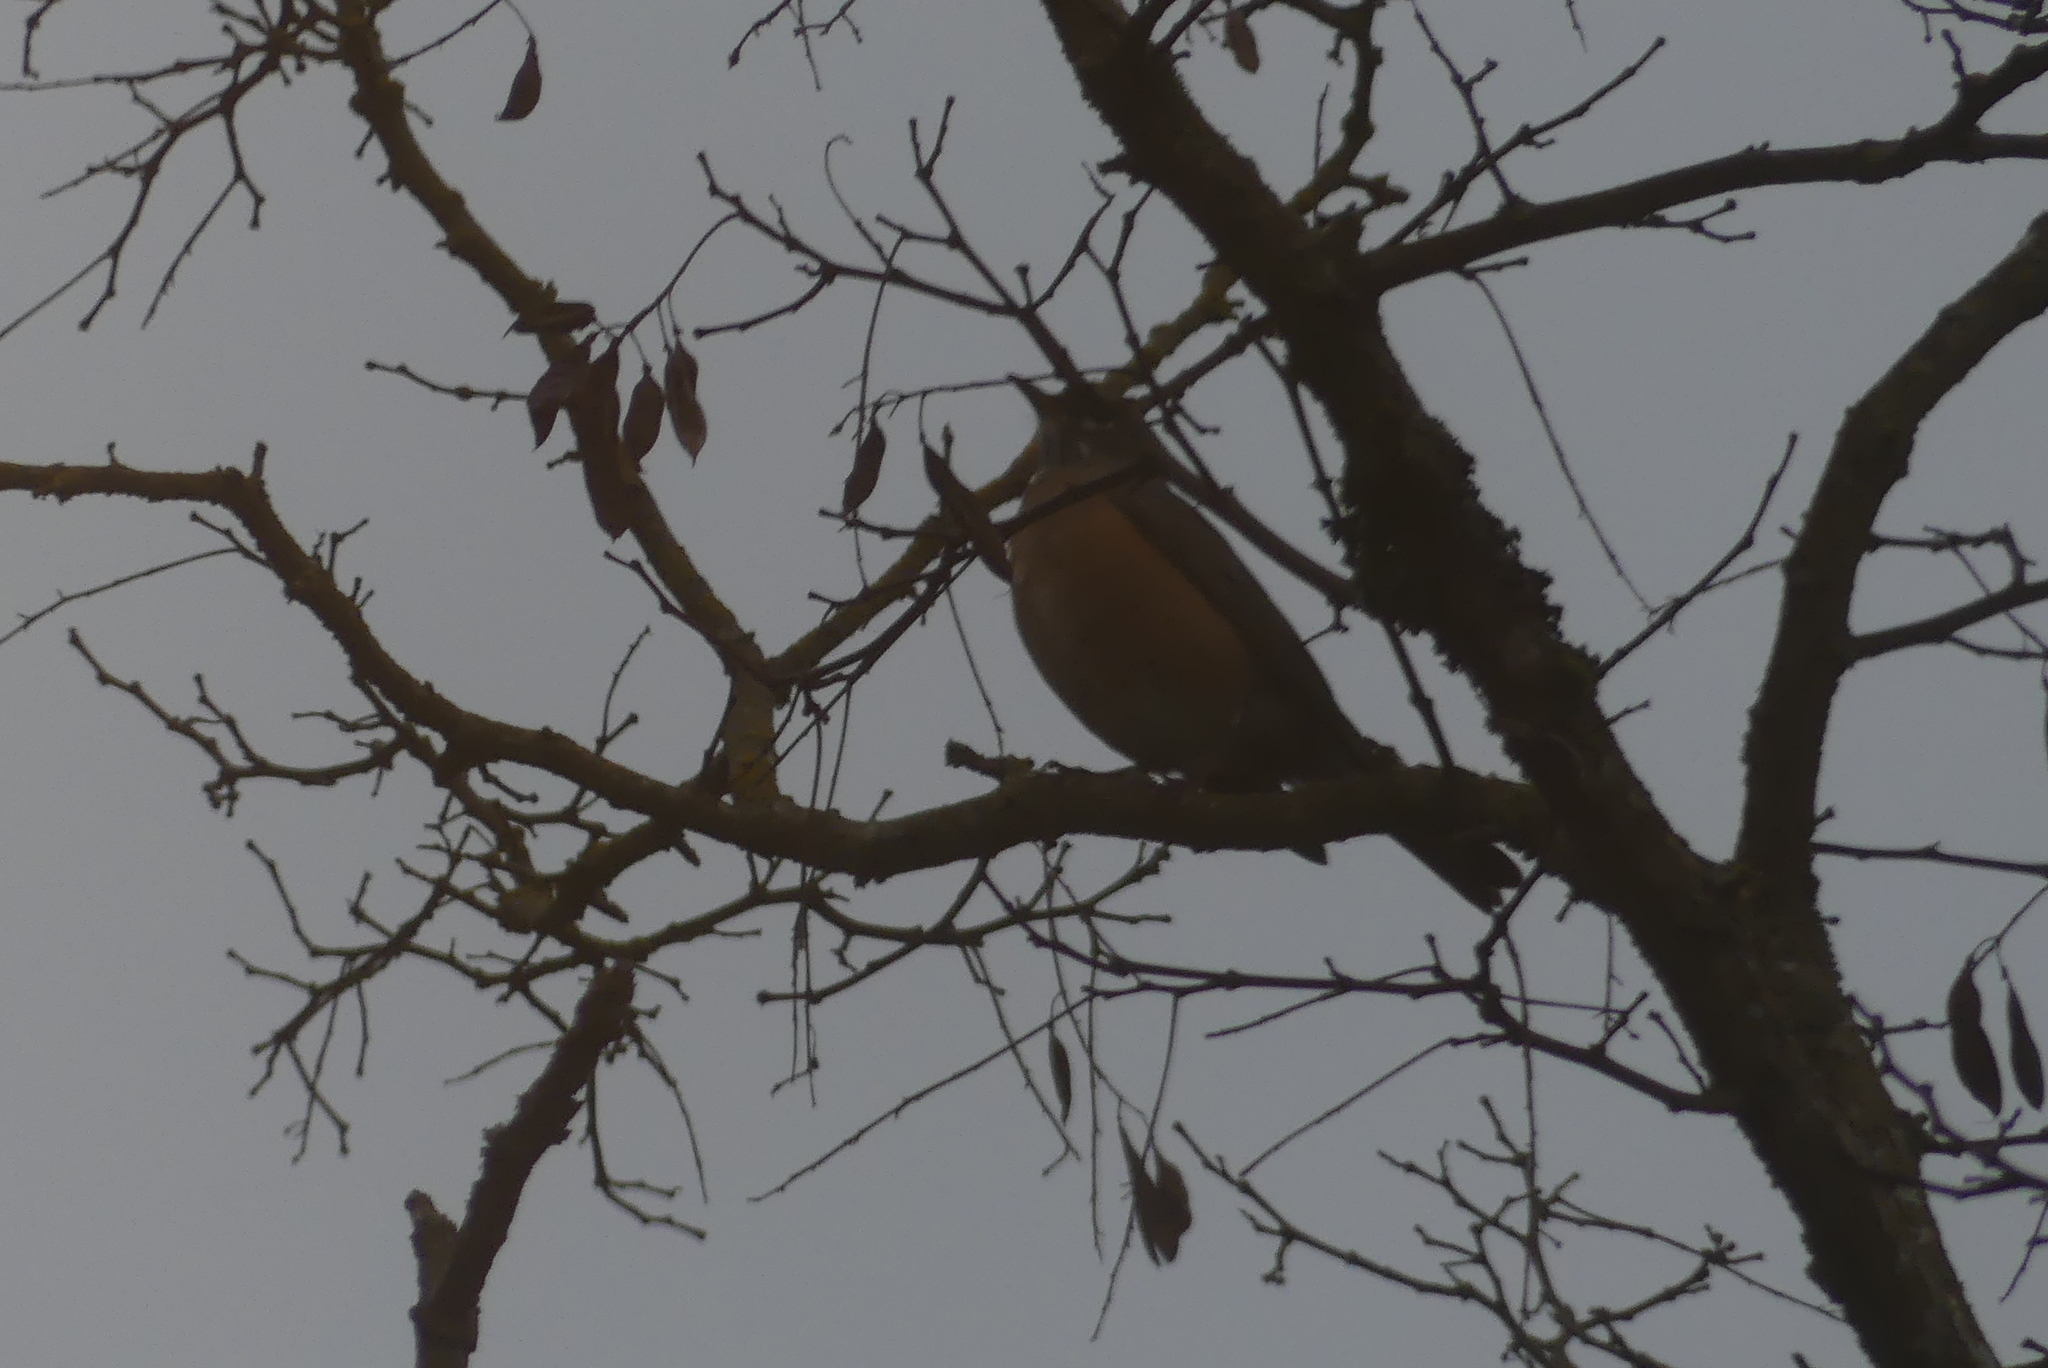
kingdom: Animalia
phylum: Chordata
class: Aves
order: Passeriformes
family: Turdidae
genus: Turdus
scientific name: Turdus migratorius
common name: American robin
